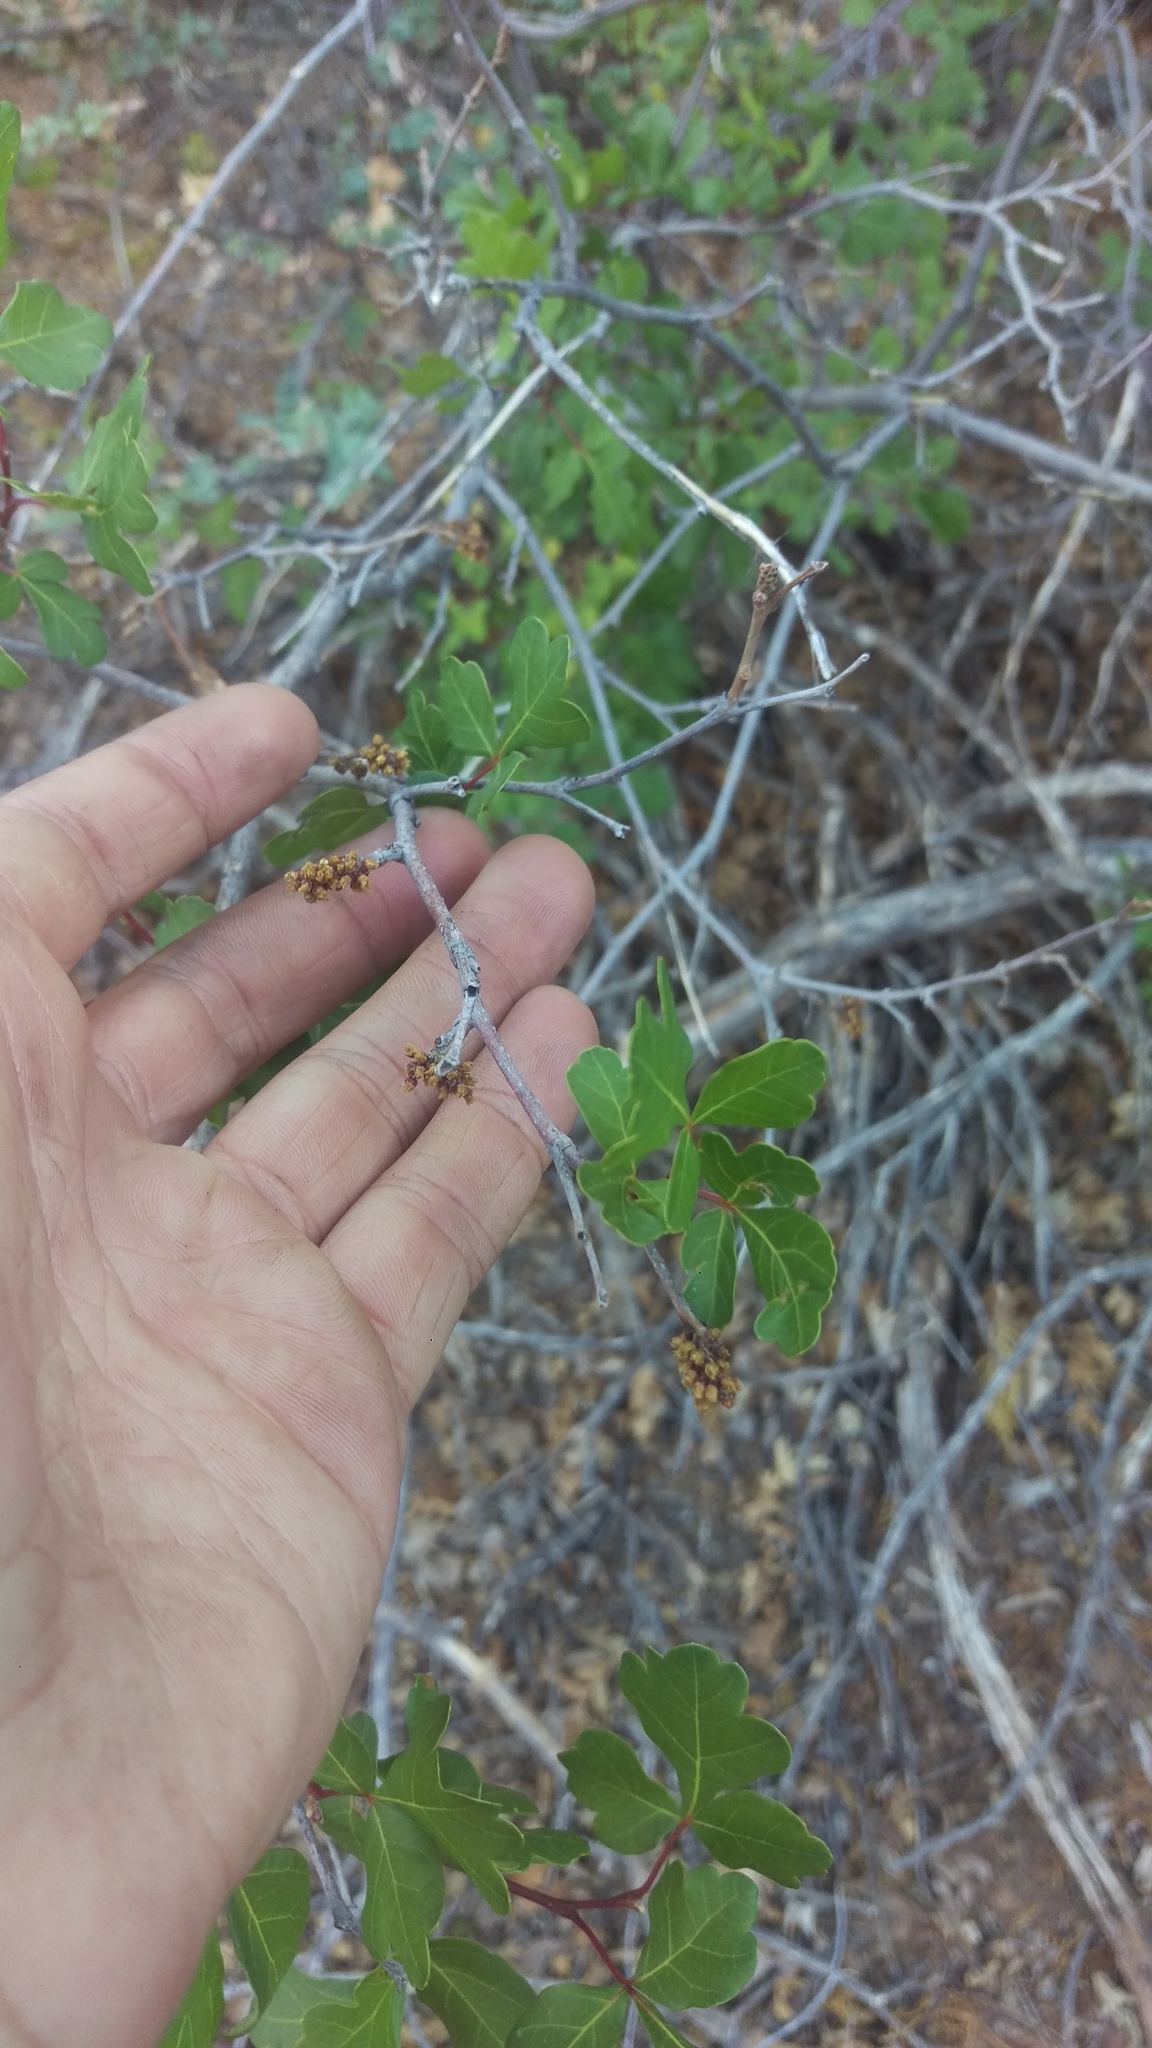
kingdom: Plantae
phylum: Tracheophyta
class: Magnoliopsida
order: Sapindales
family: Anacardiaceae
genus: Rhus
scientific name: Rhus aromatica
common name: Aromatic sumac
